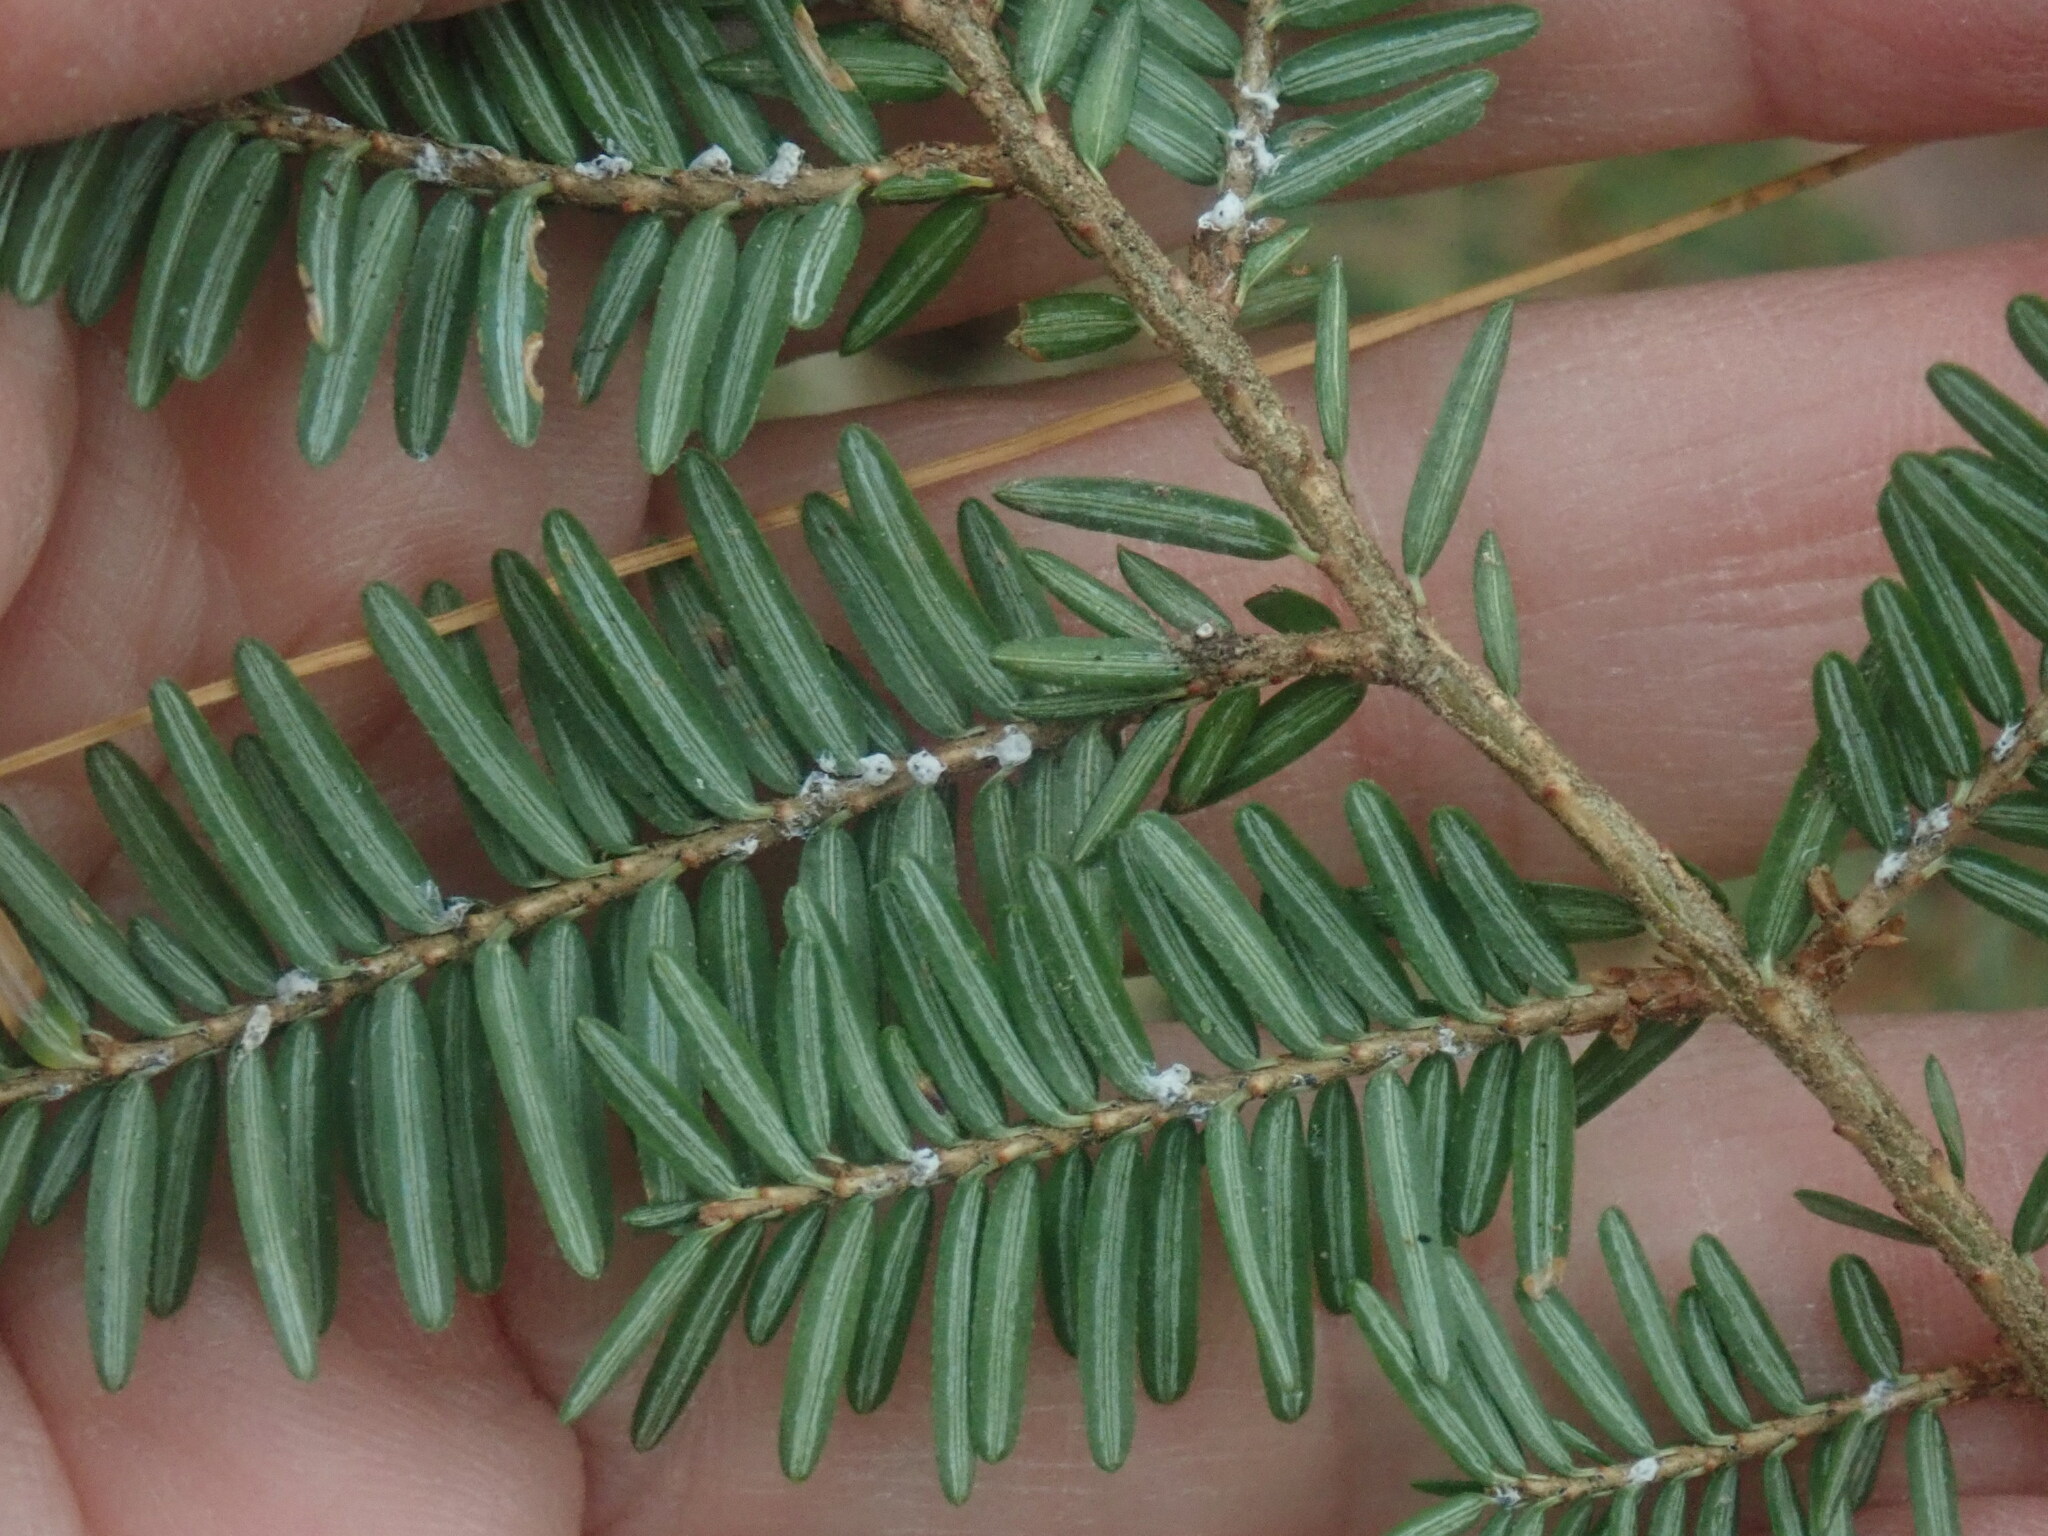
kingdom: Plantae
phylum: Tracheophyta
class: Pinopsida
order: Pinales
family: Pinaceae
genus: Tsuga
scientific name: Tsuga canadensis
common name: Eastern hemlock
